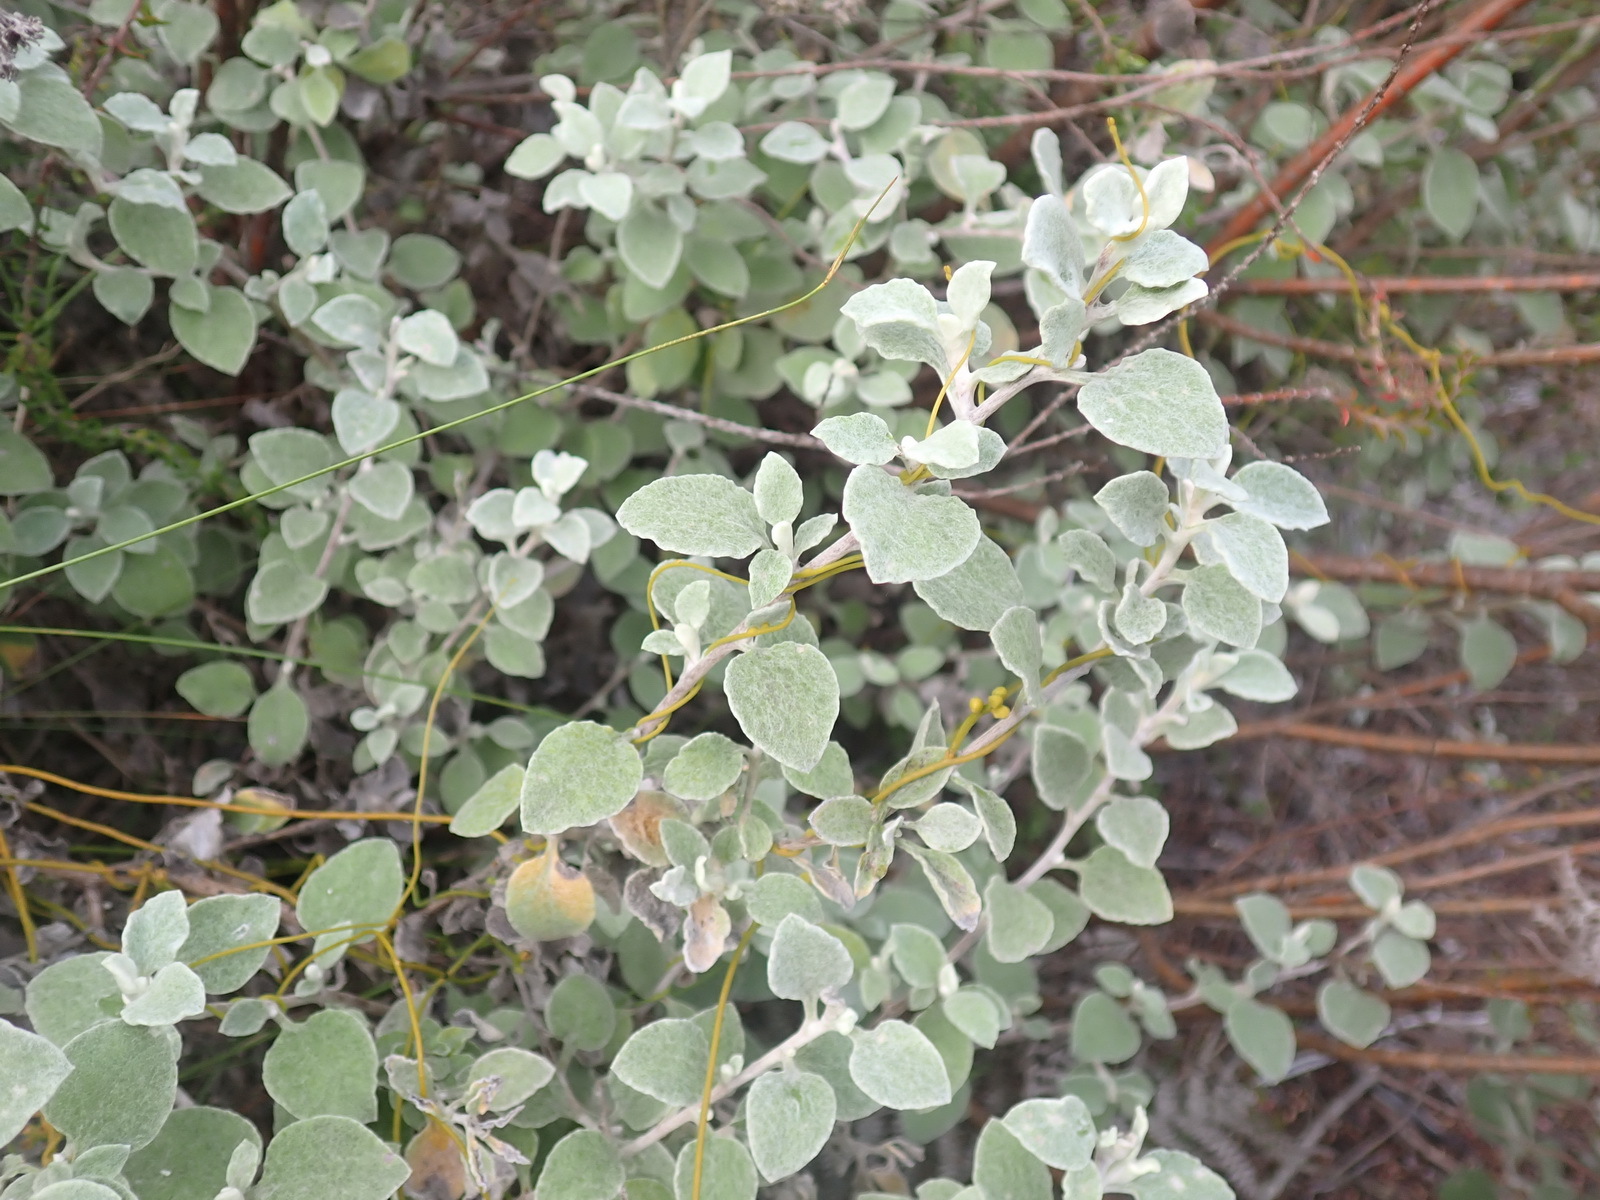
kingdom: Plantae
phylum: Tracheophyta
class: Magnoliopsida
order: Asterales
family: Asteraceae
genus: Helichrysum
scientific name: Helichrysum petiolare
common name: Licorice-plant
